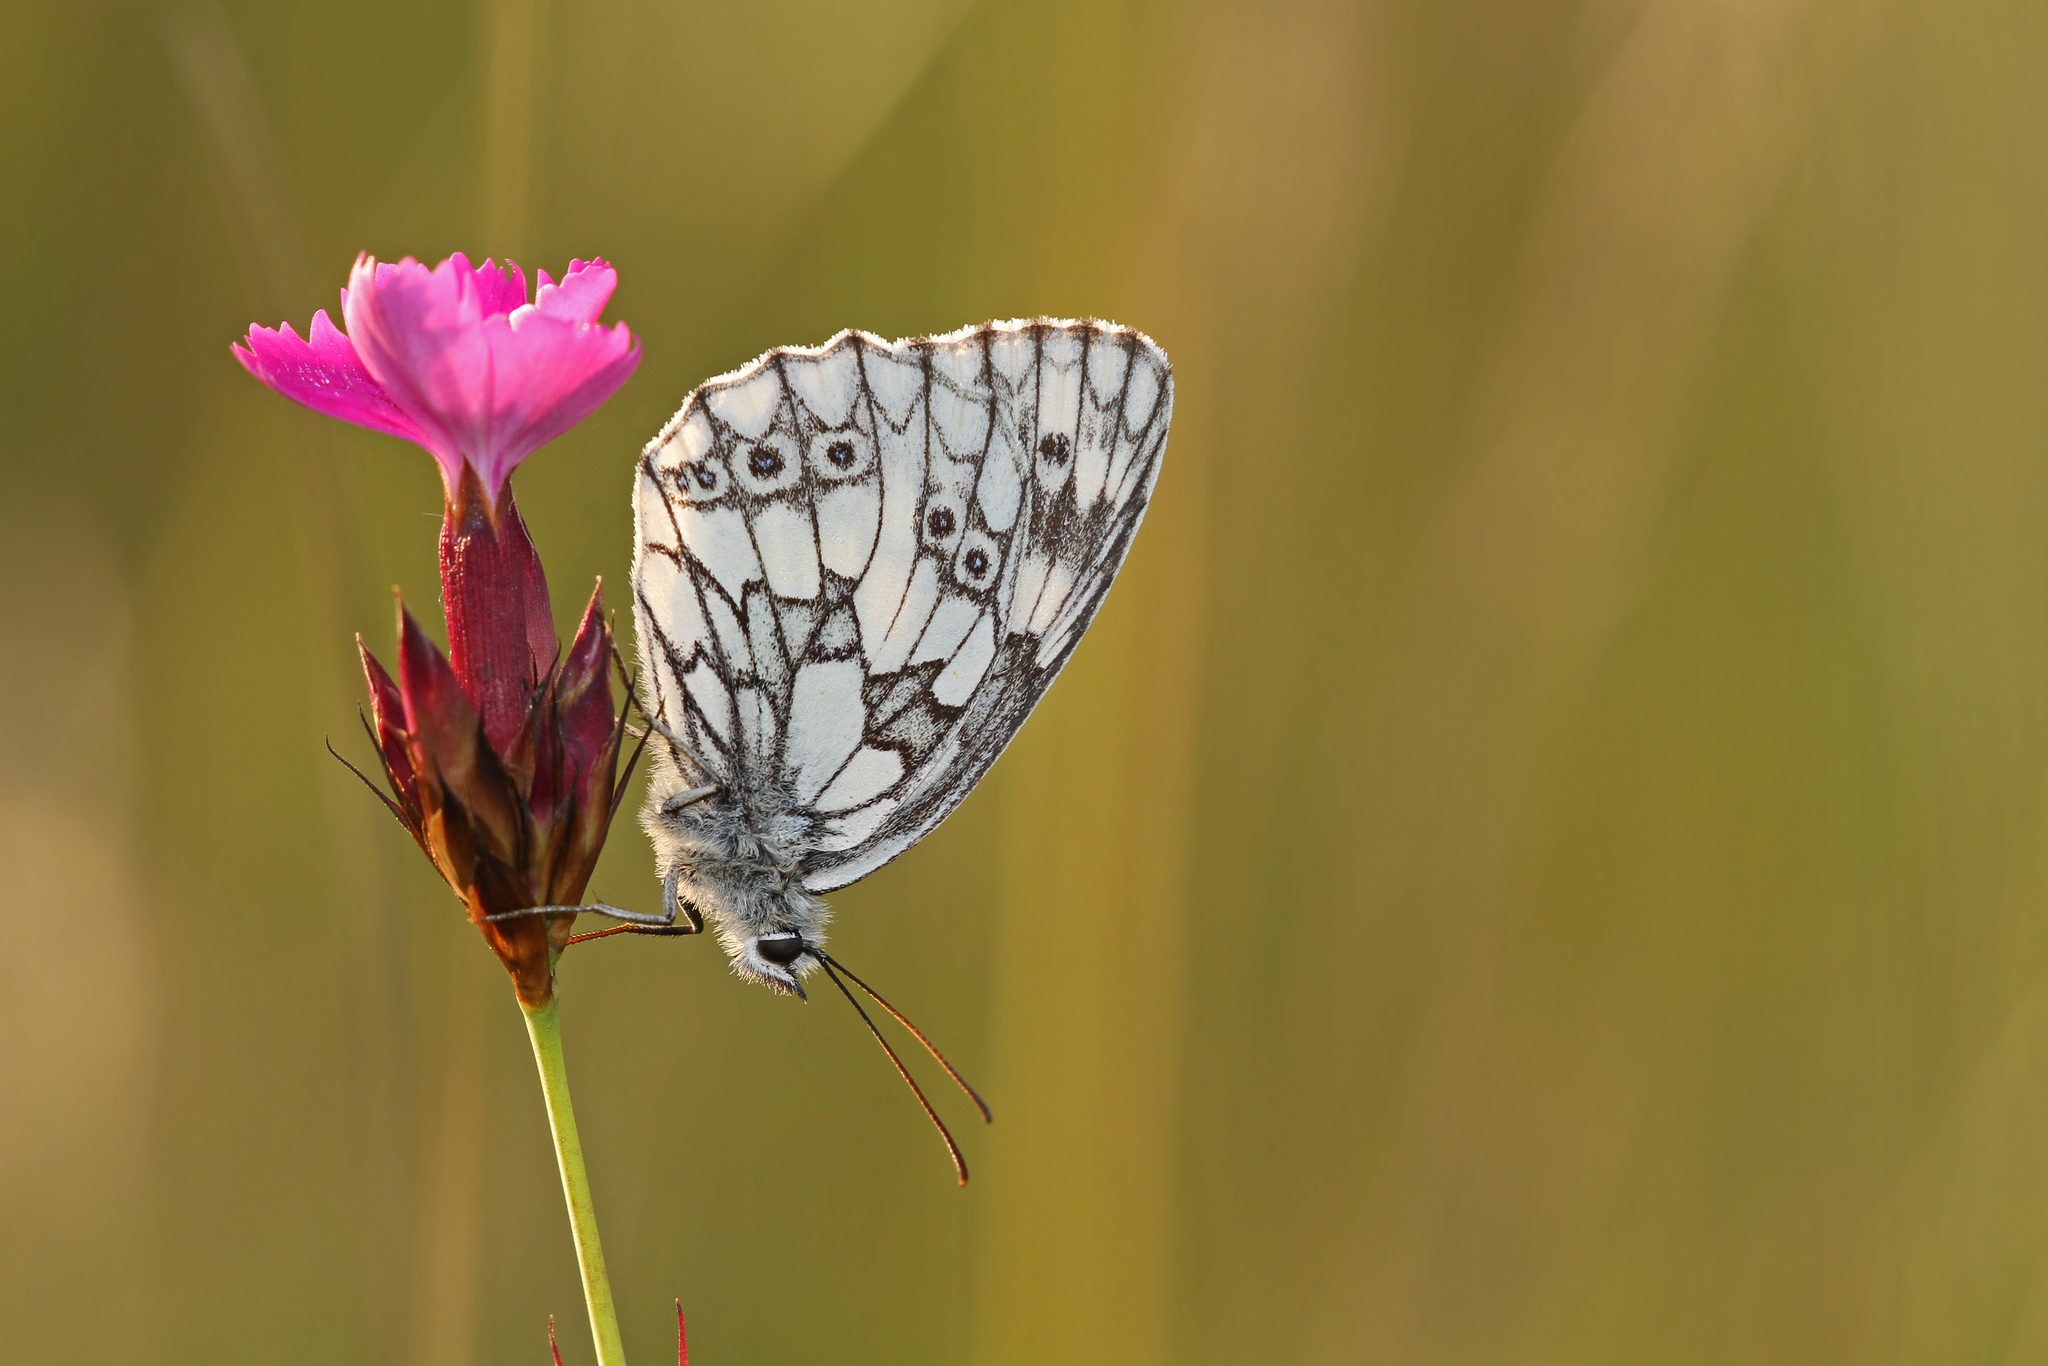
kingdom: Animalia
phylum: Arthropoda
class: Insecta
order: Lepidoptera
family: Nymphalidae
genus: Melanargia
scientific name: Melanargia galathea
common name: Marbled white
